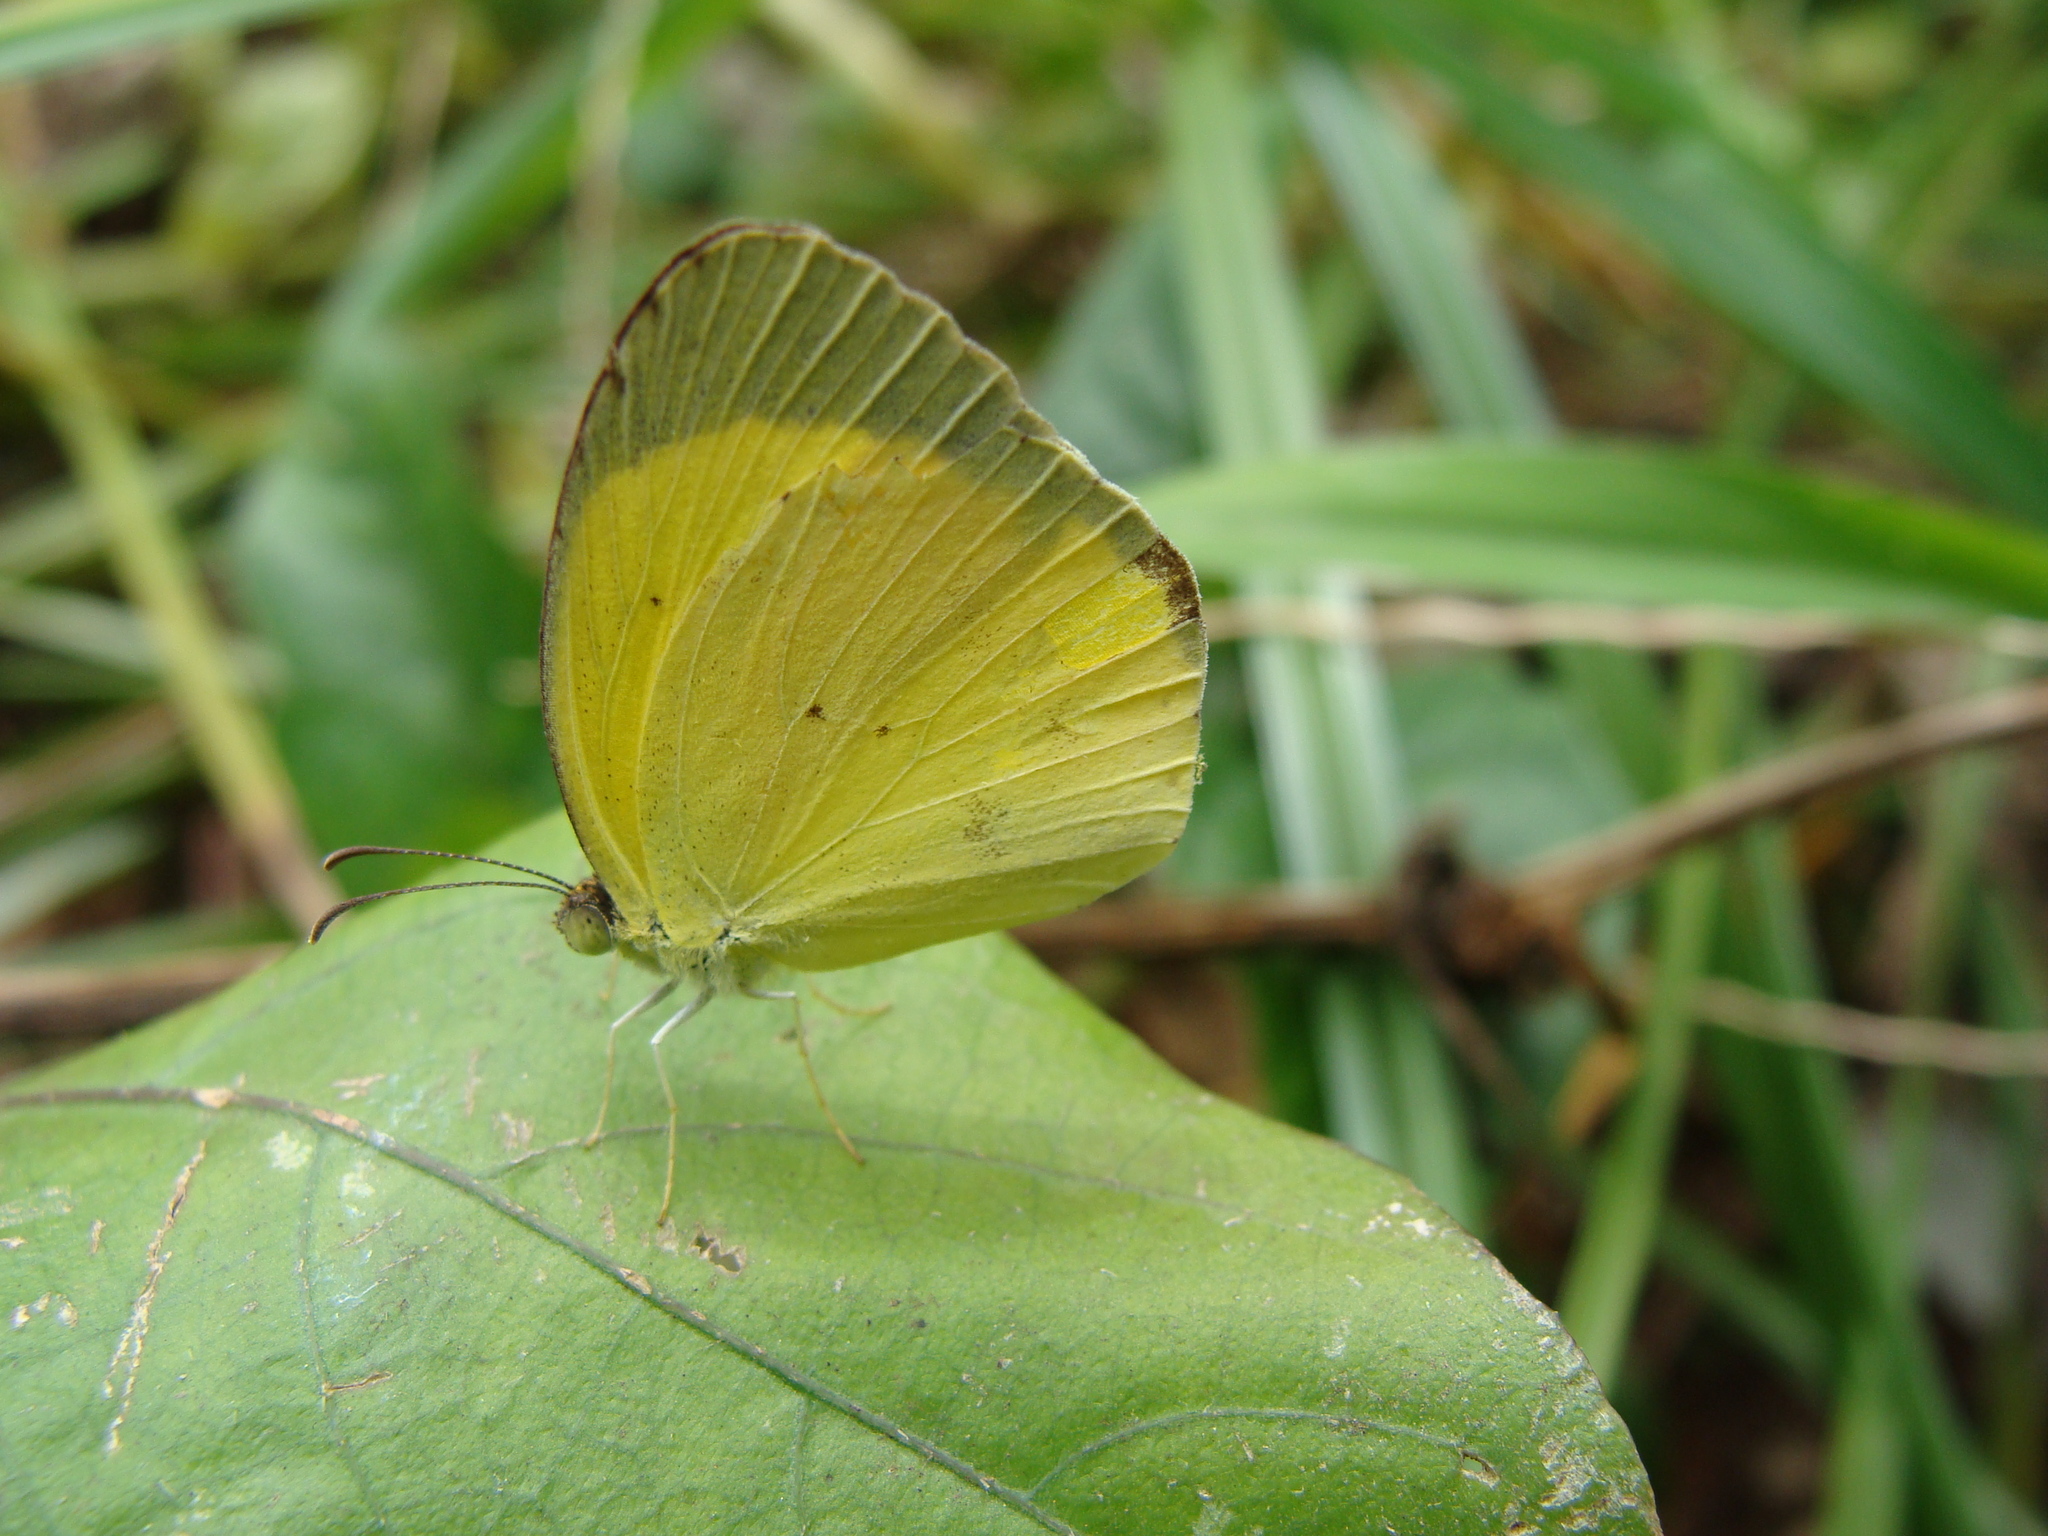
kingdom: Animalia
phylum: Arthropoda
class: Insecta
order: Lepidoptera
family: Pieridae
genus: Pyrisitia
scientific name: Pyrisitia nise
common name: Mimosa yellow
